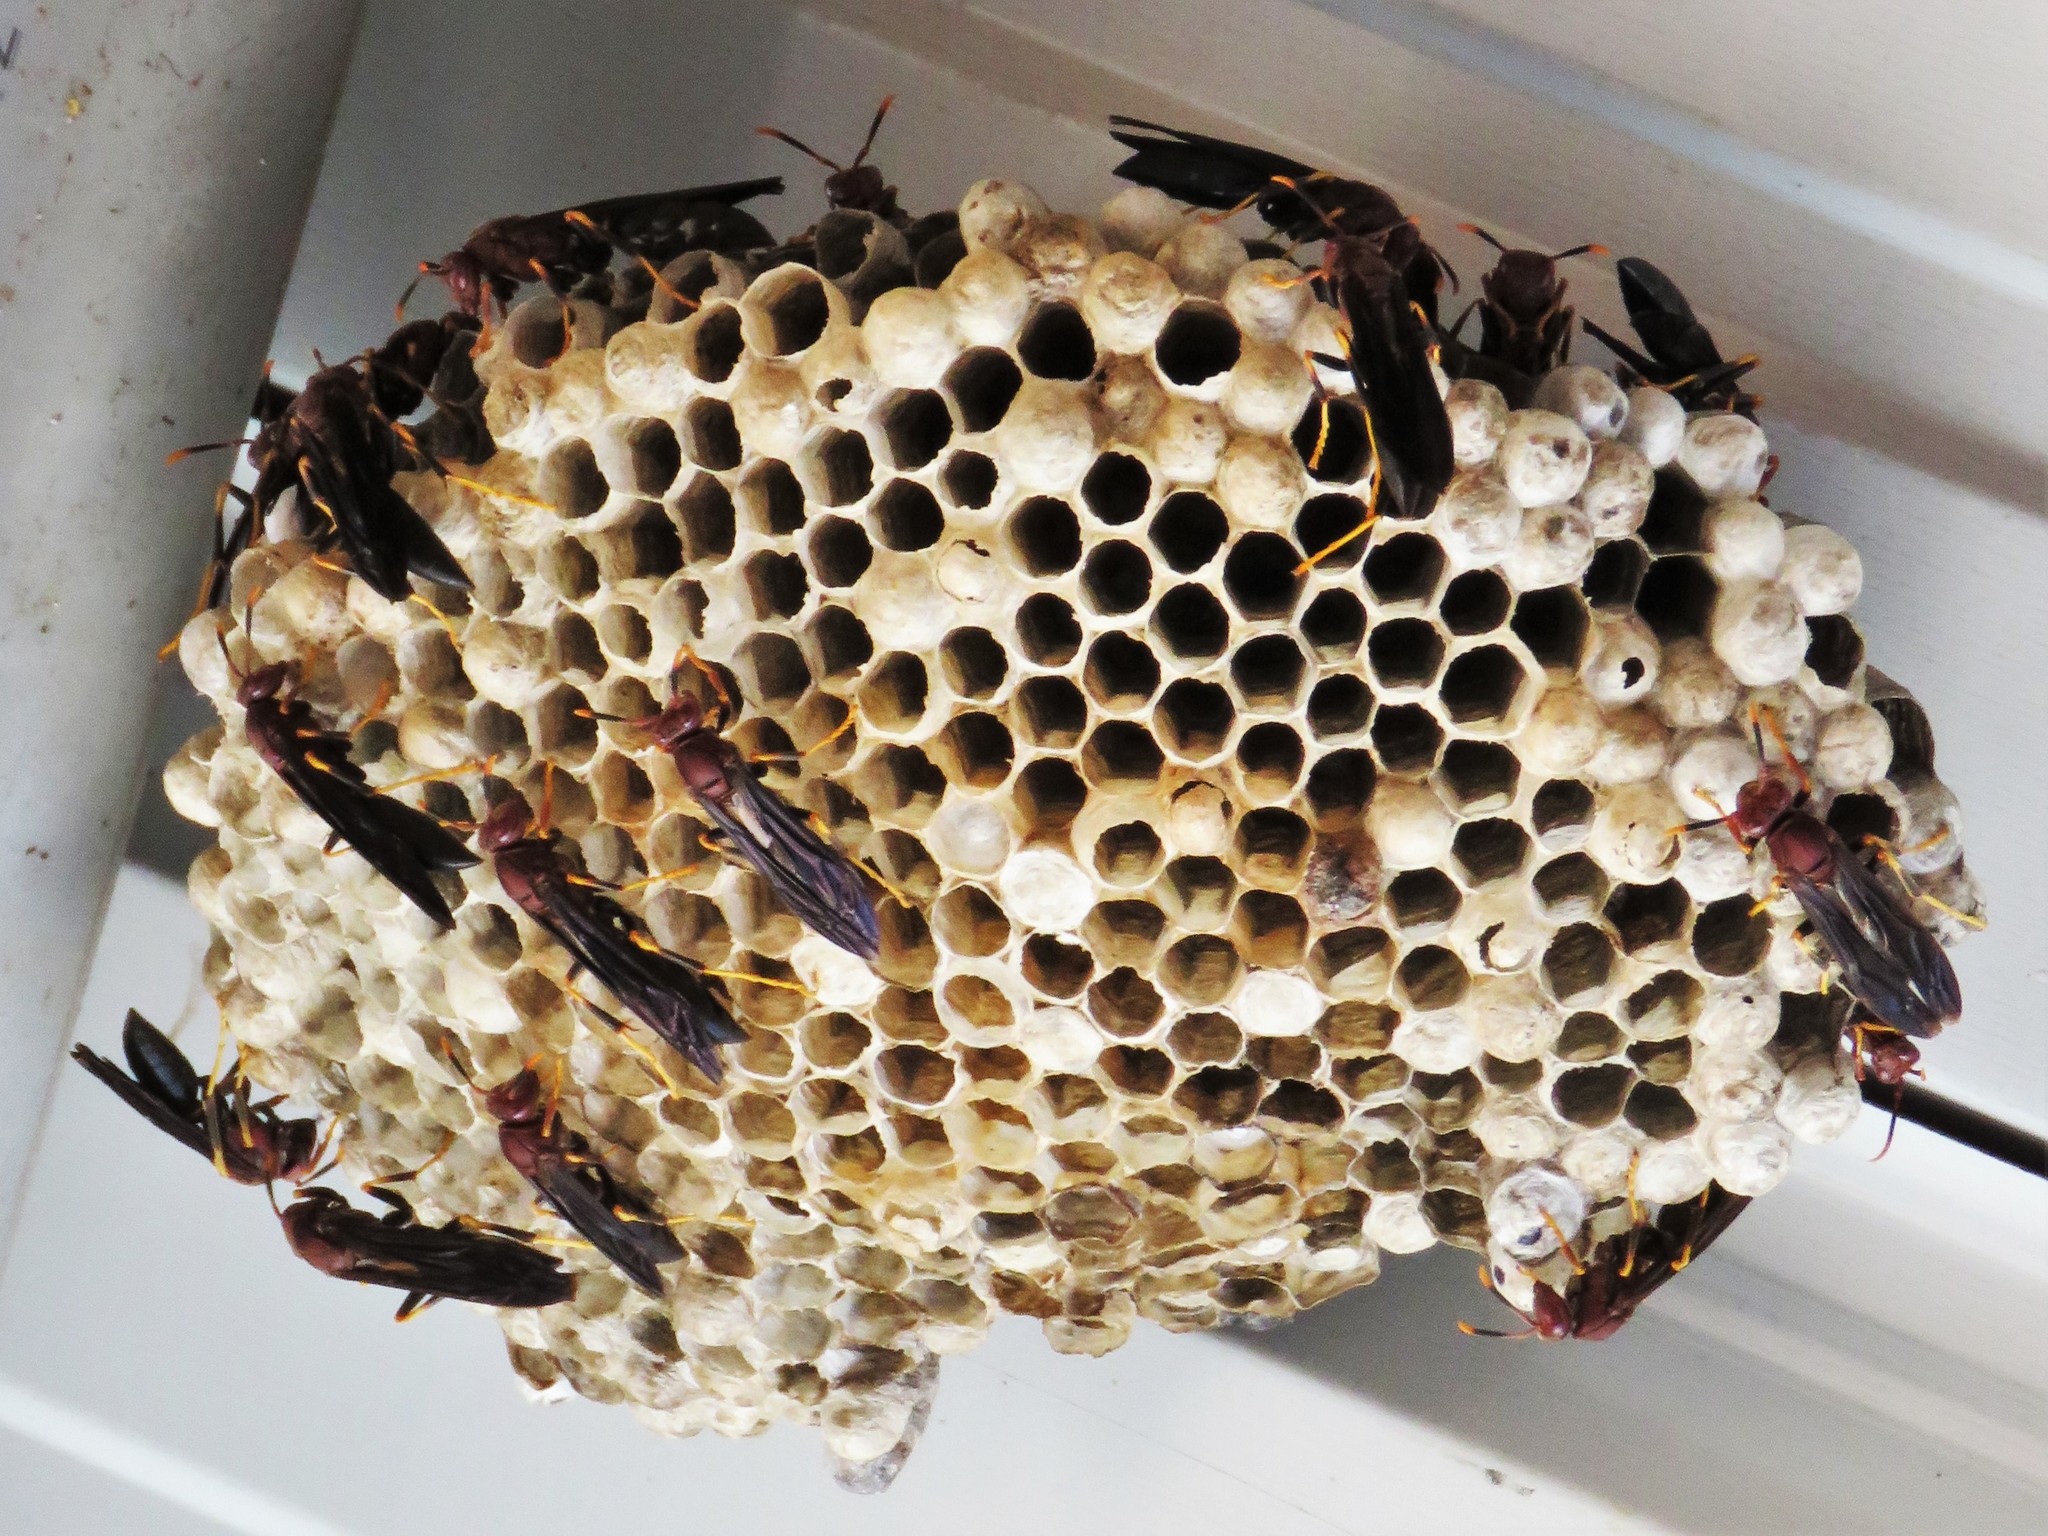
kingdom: Animalia
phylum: Arthropoda
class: Insecta
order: Hymenoptera
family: Eumenidae
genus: Polistes
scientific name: Polistes annularis
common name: Ringed paper wasp
